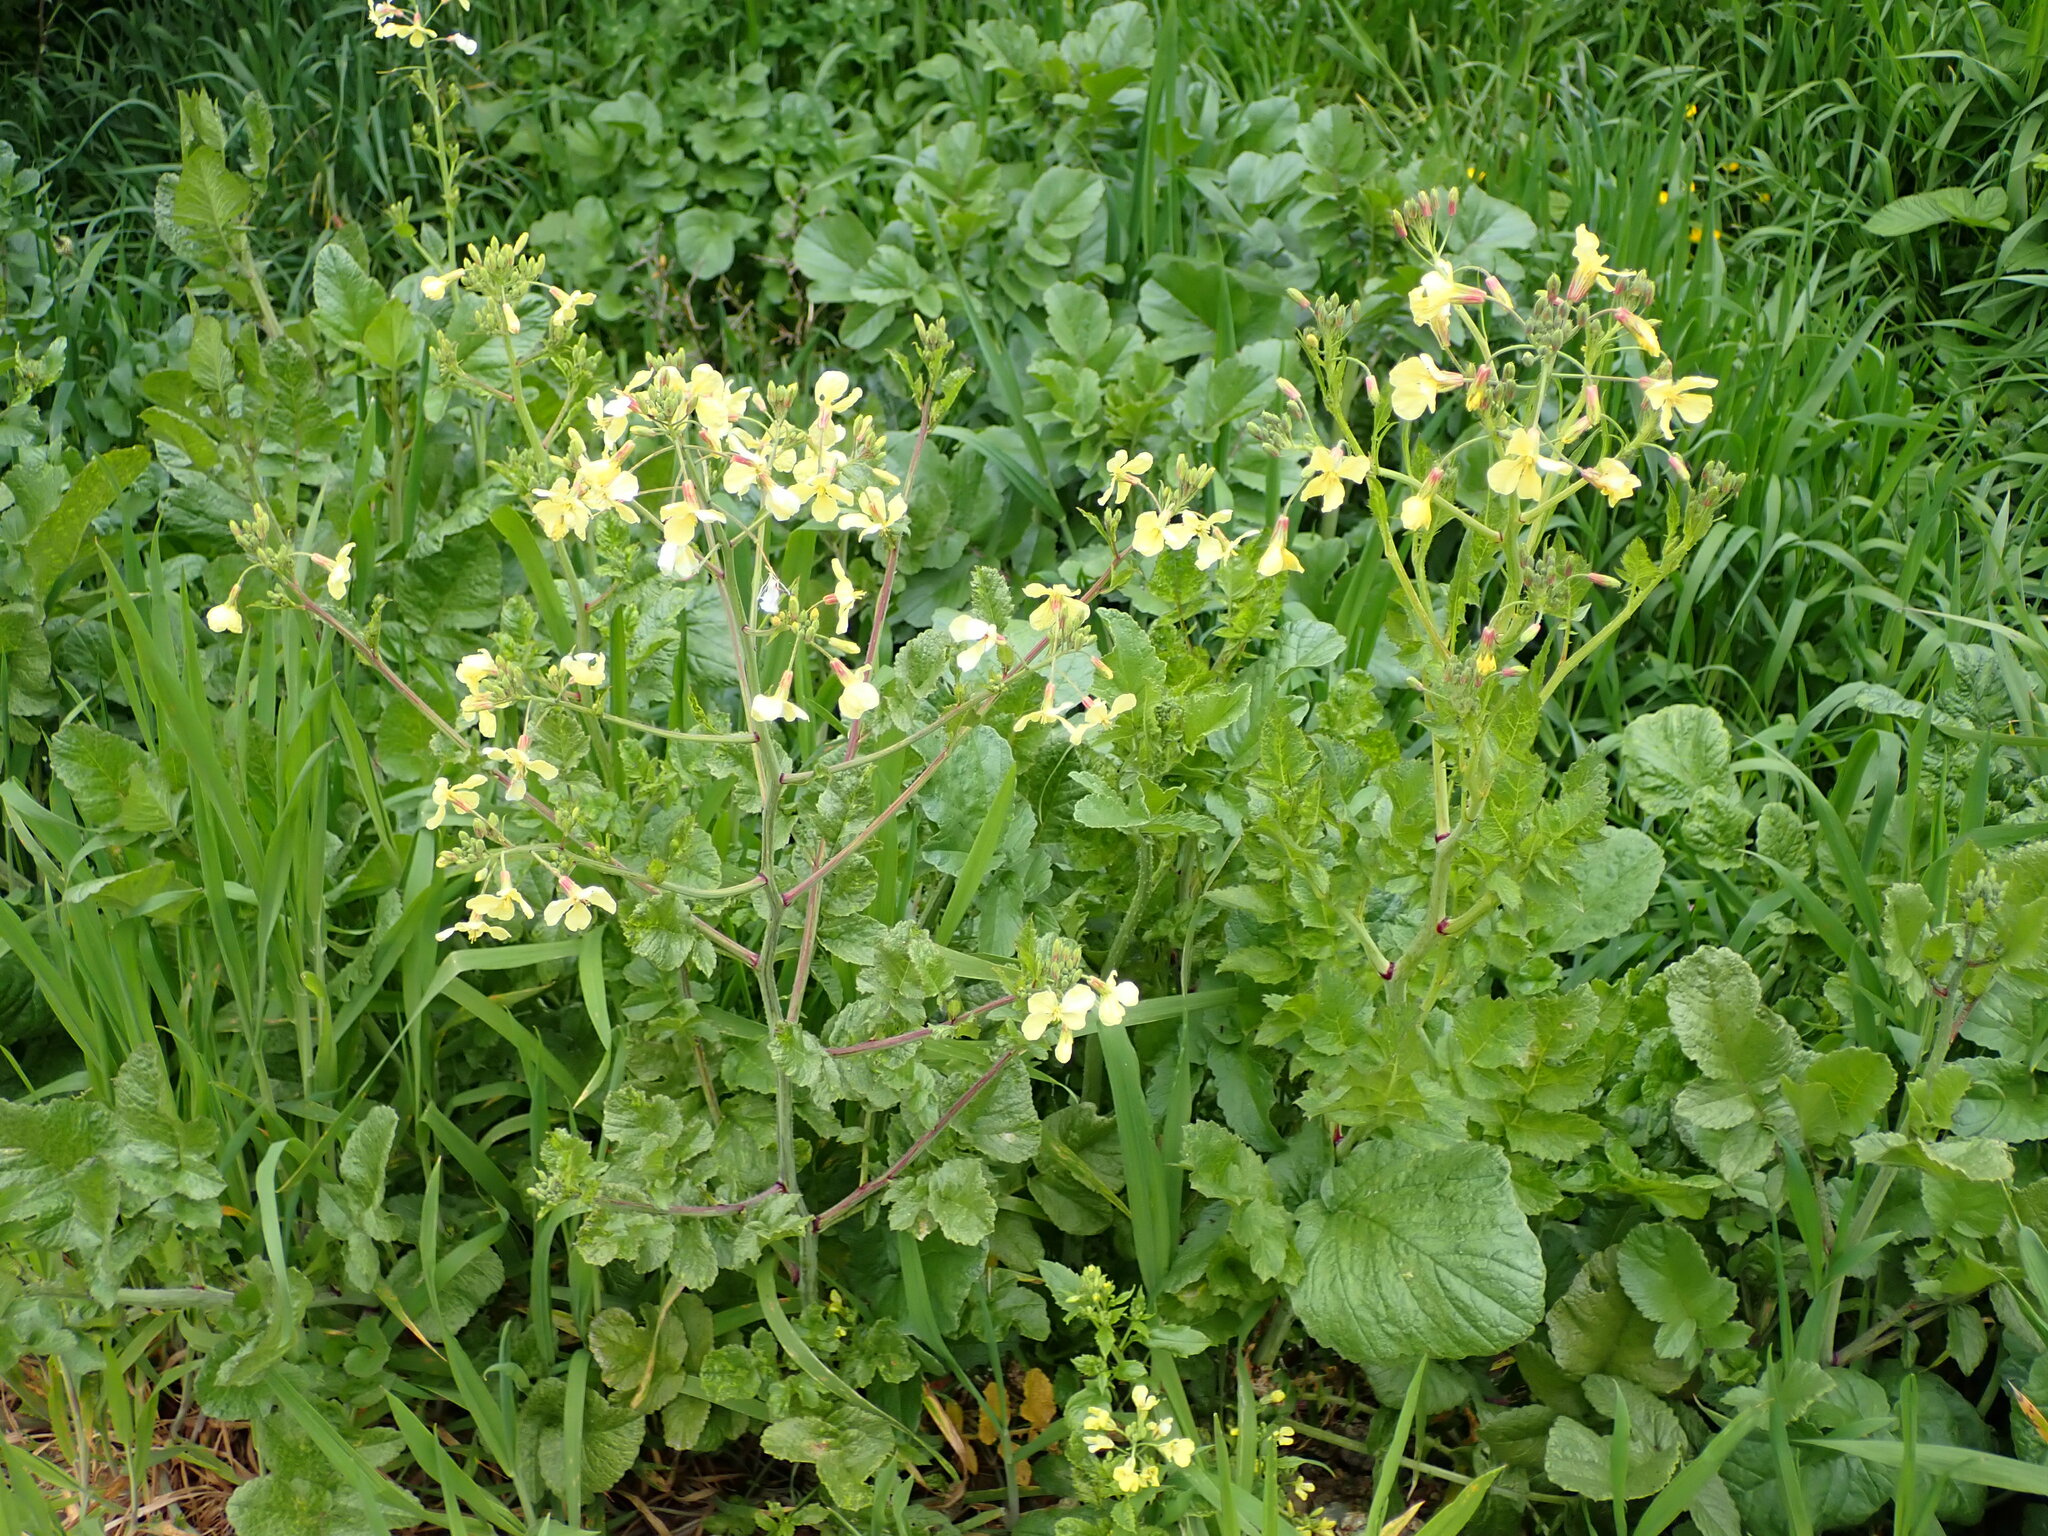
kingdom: Plantae
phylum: Tracheophyta
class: Magnoliopsida
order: Brassicales
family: Brassicaceae
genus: Raphanus
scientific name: Raphanus raphanistrum
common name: Wild radish
